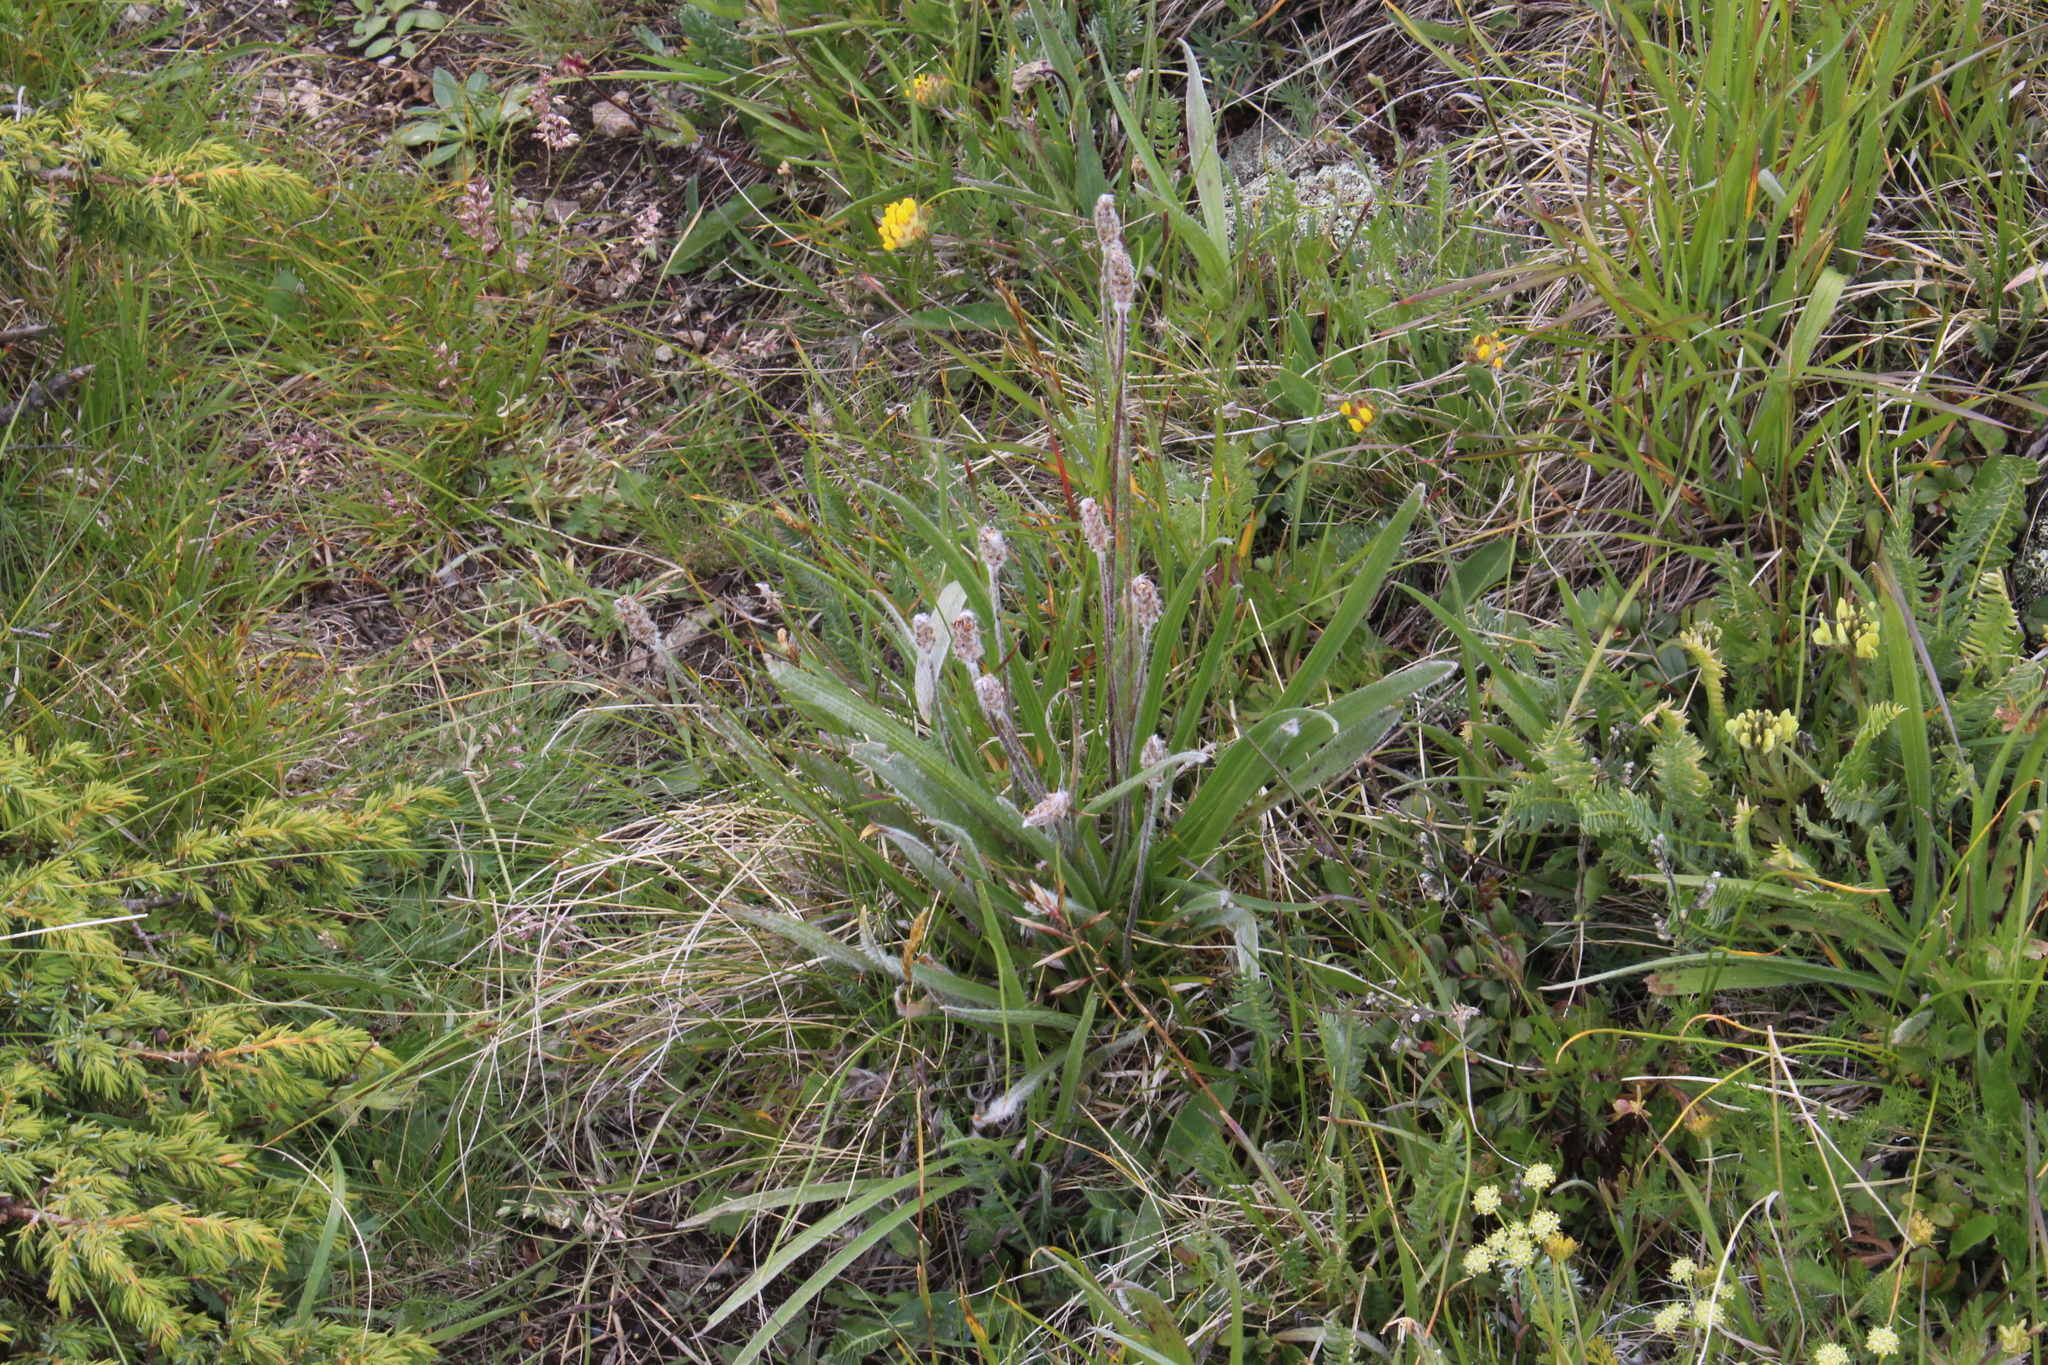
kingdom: Plantae
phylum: Tracheophyta
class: Magnoliopsida
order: Lamiales
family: Plantaginaceae
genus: Plantago
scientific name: Plantago atrata
